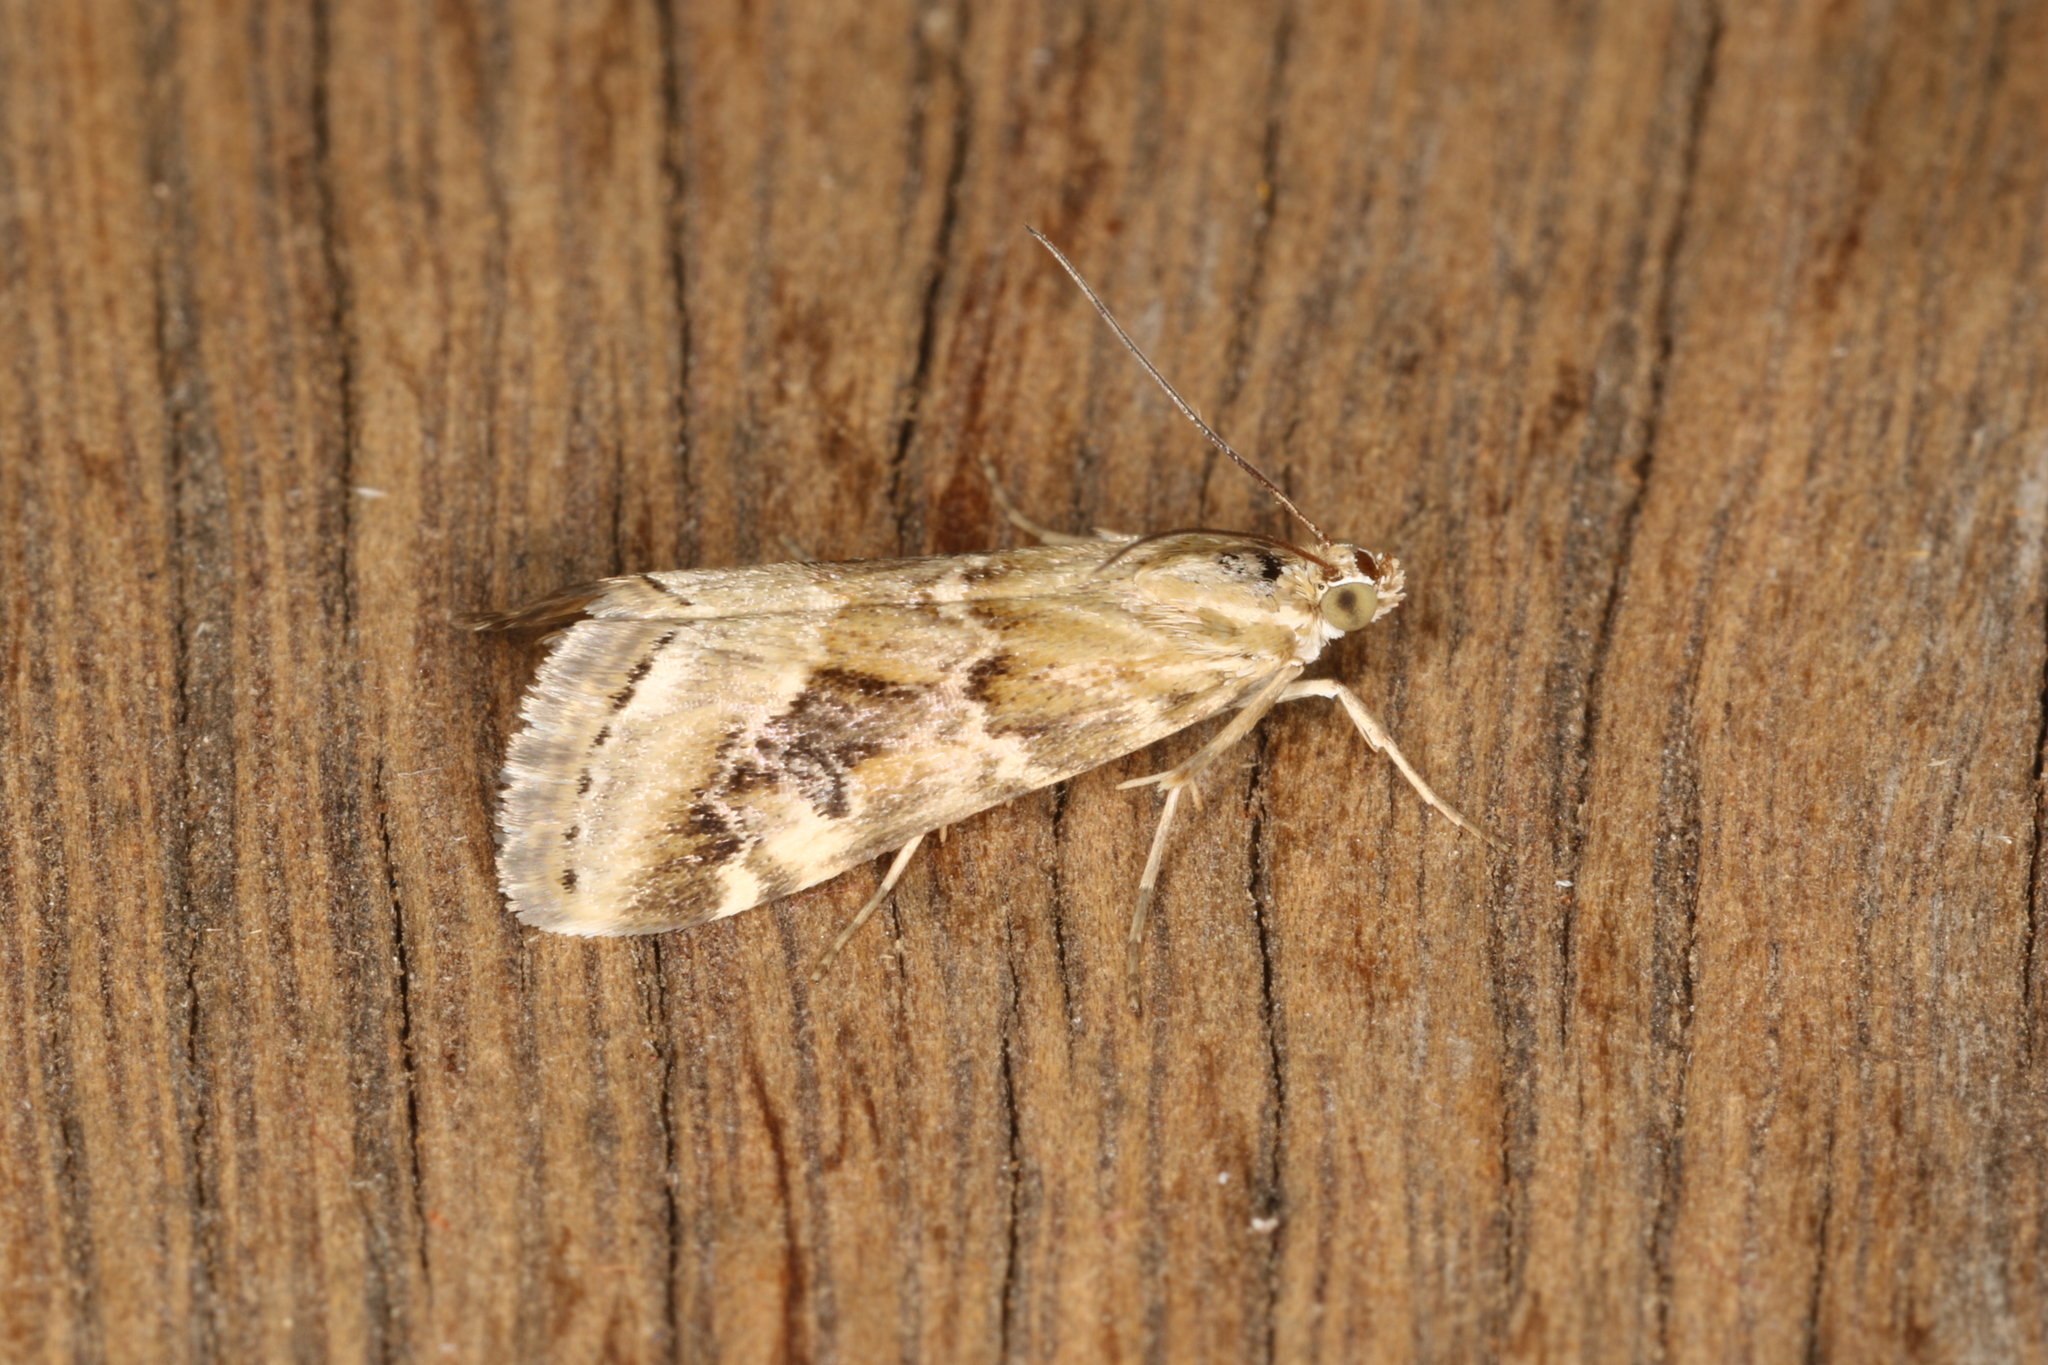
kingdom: Animalia
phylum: Arthropoda
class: Insecta
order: Lepidoptera
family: Crambidae
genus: Hellula
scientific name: Hellula hydralis
